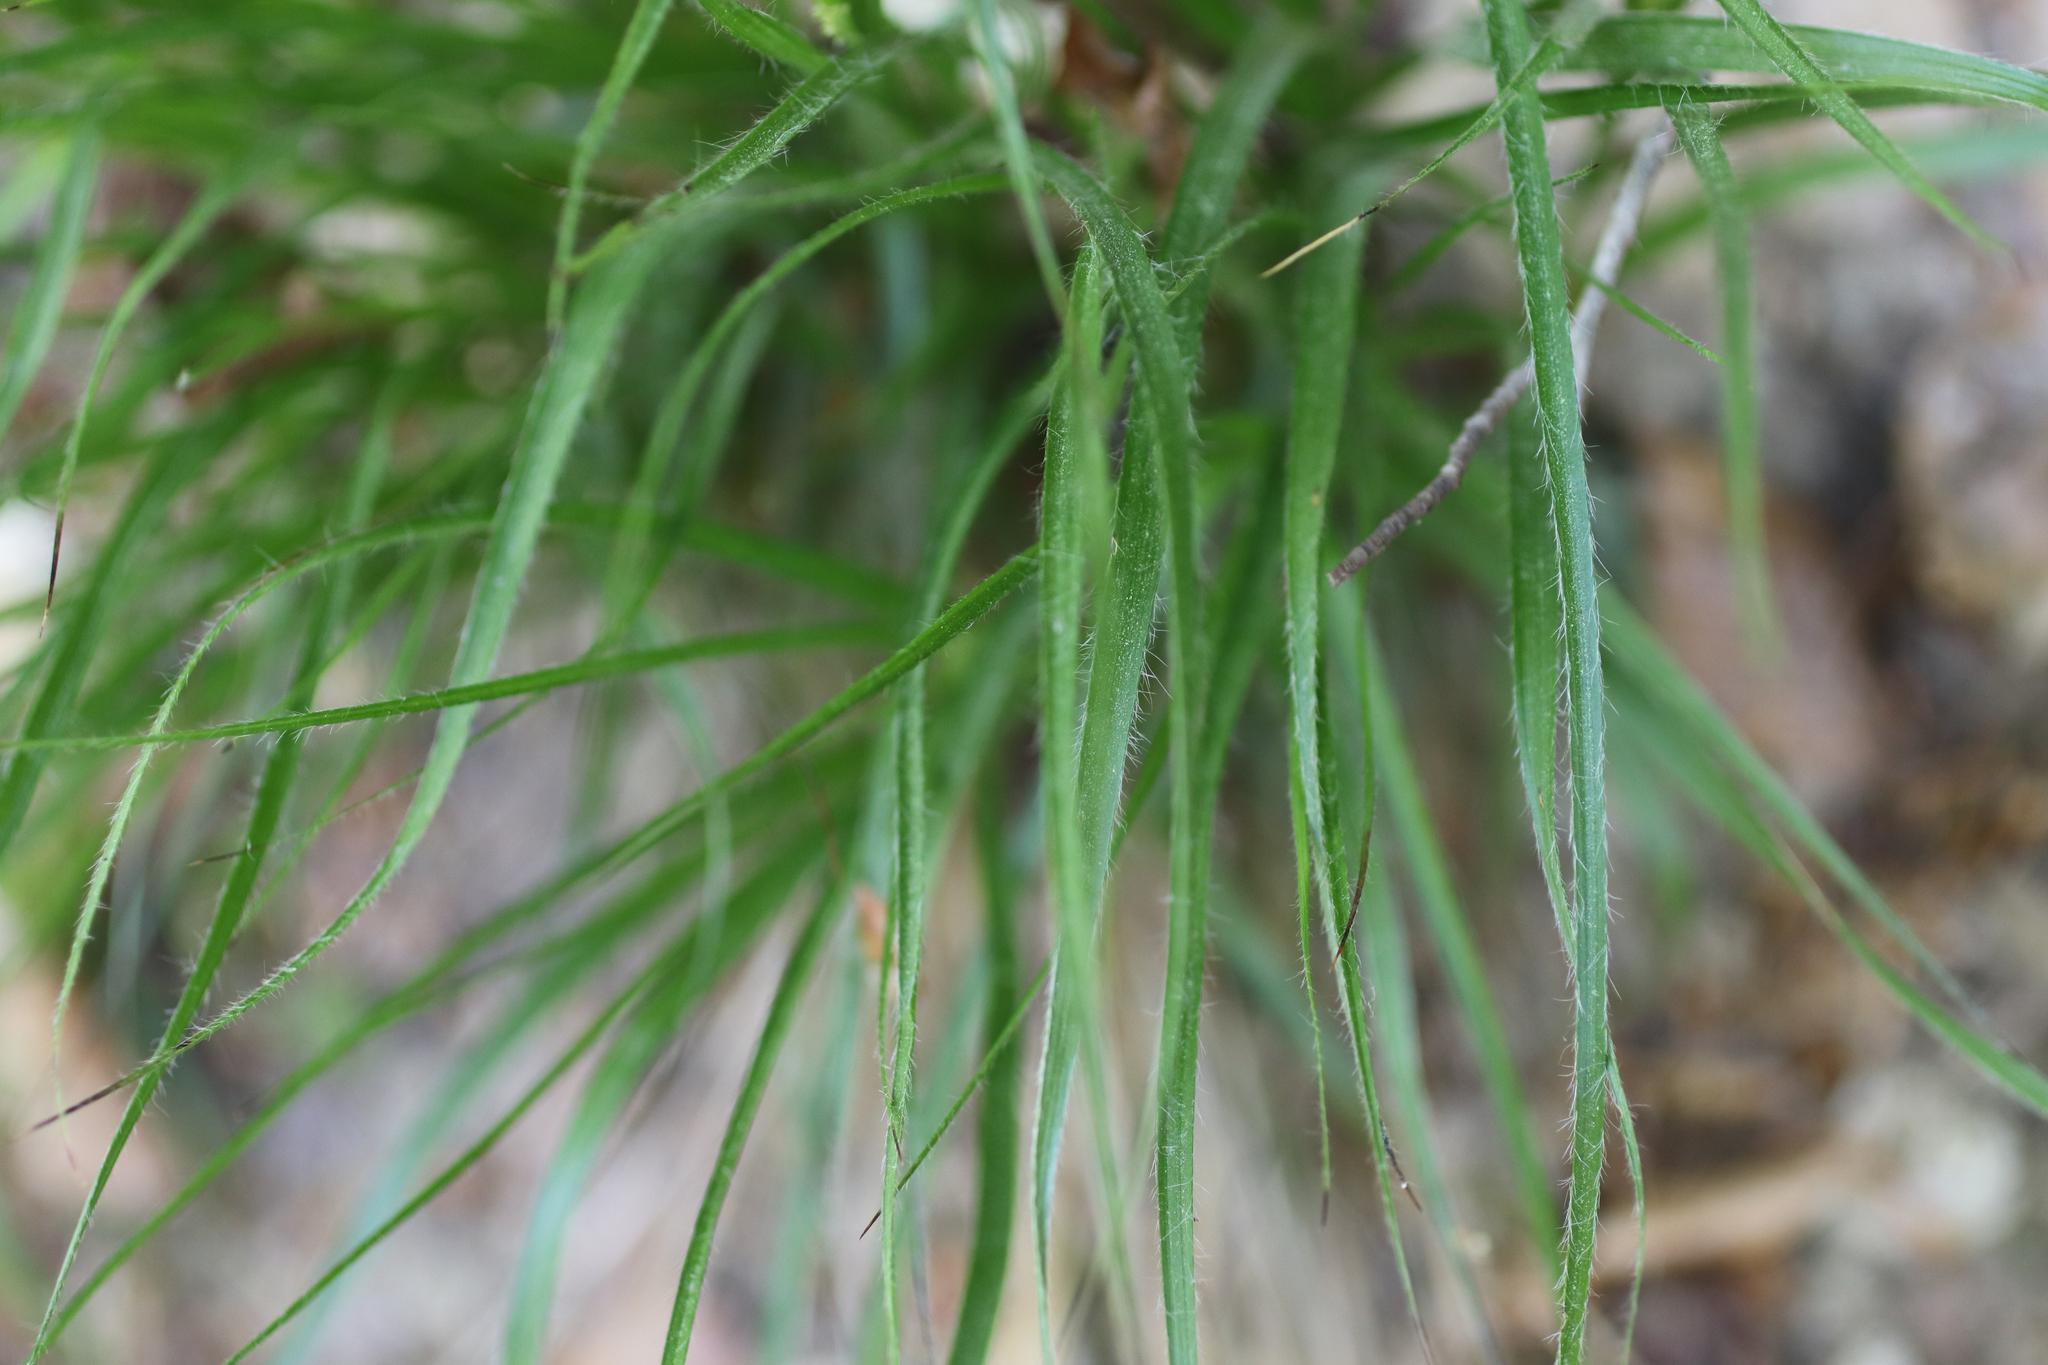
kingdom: Plantae
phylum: Tracheophyta
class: Liliopsida
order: Poales
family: Juncaceae
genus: Luzula
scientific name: Luzula luzuloides
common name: White wood-rush
